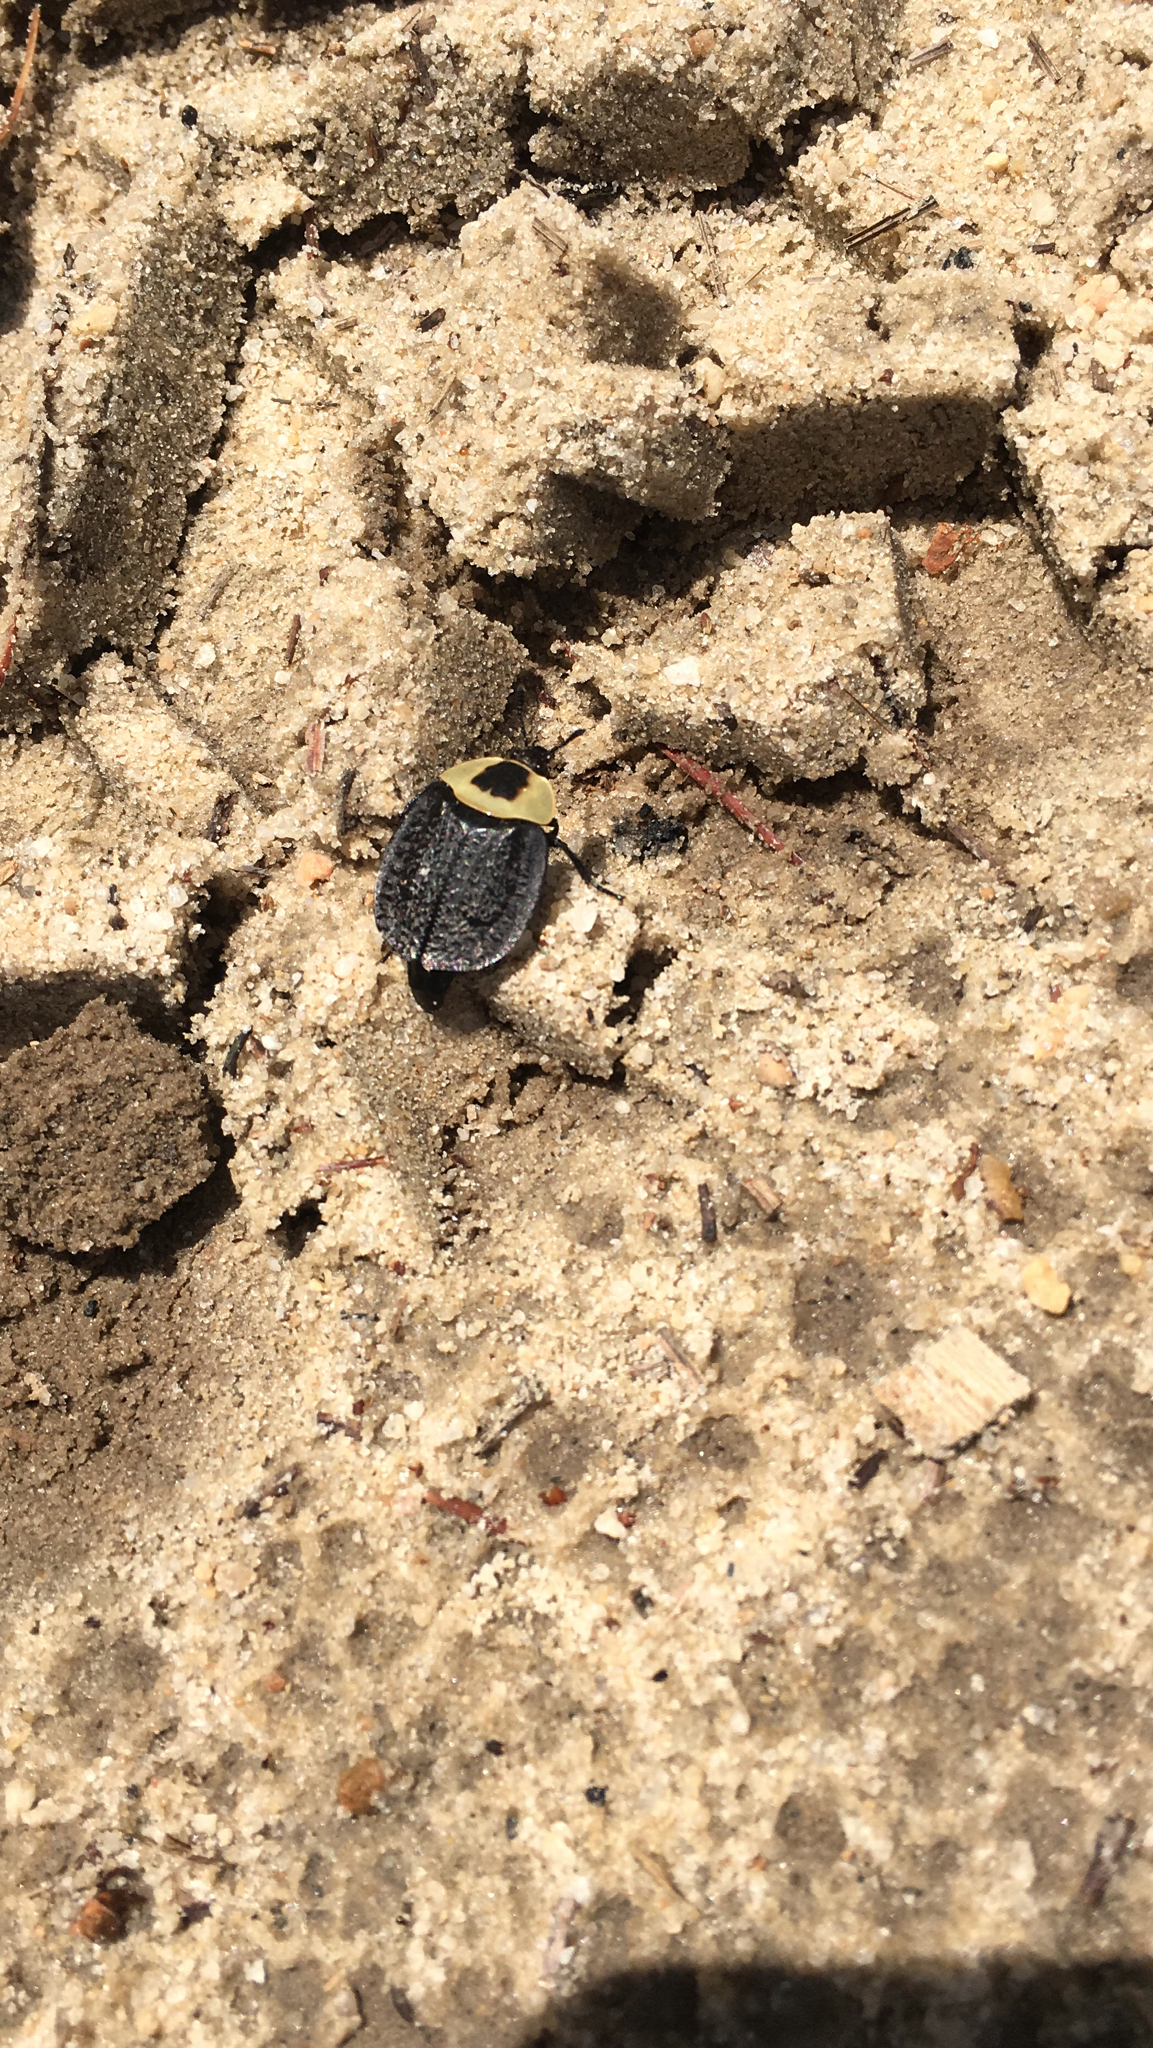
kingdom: Animalia
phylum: Arthropoda
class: Insecta
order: Coleoptera
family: Staphylinidae
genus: Necrophila
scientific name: Necrophila americana
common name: American carrion beetle
